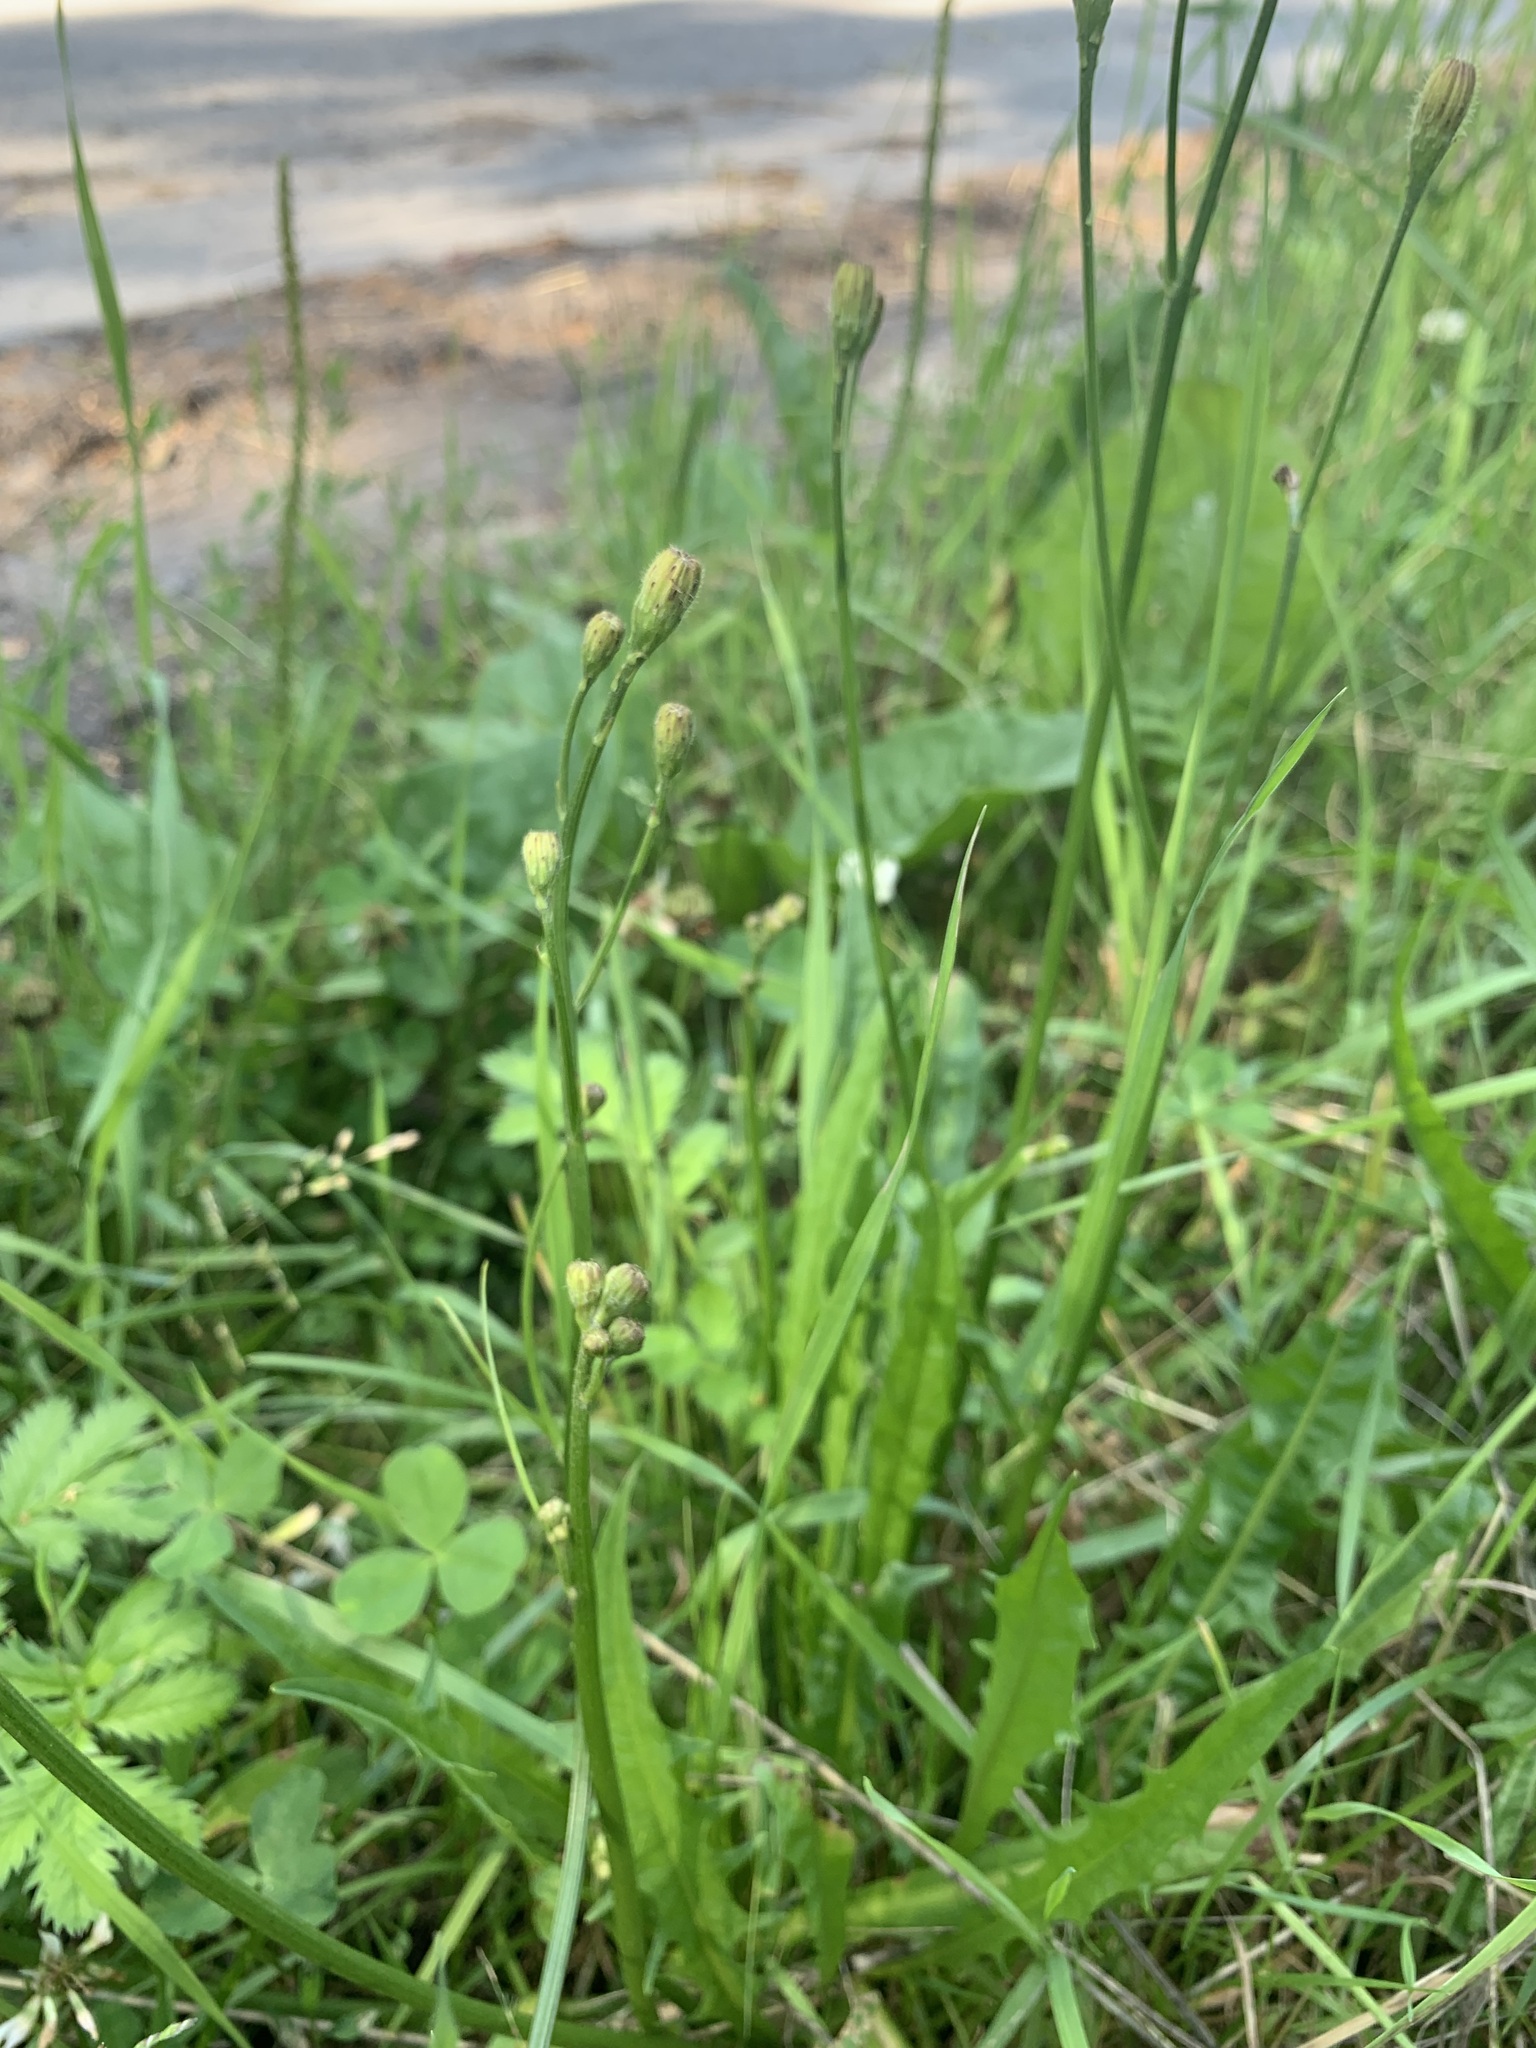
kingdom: Plantae
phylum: Tracheophyta
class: Magnoliopsida
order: Asterales
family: Asteraceae
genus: Scorzoneroides
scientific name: Scorzoneroides autumnalis
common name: Autumn hawkbit
